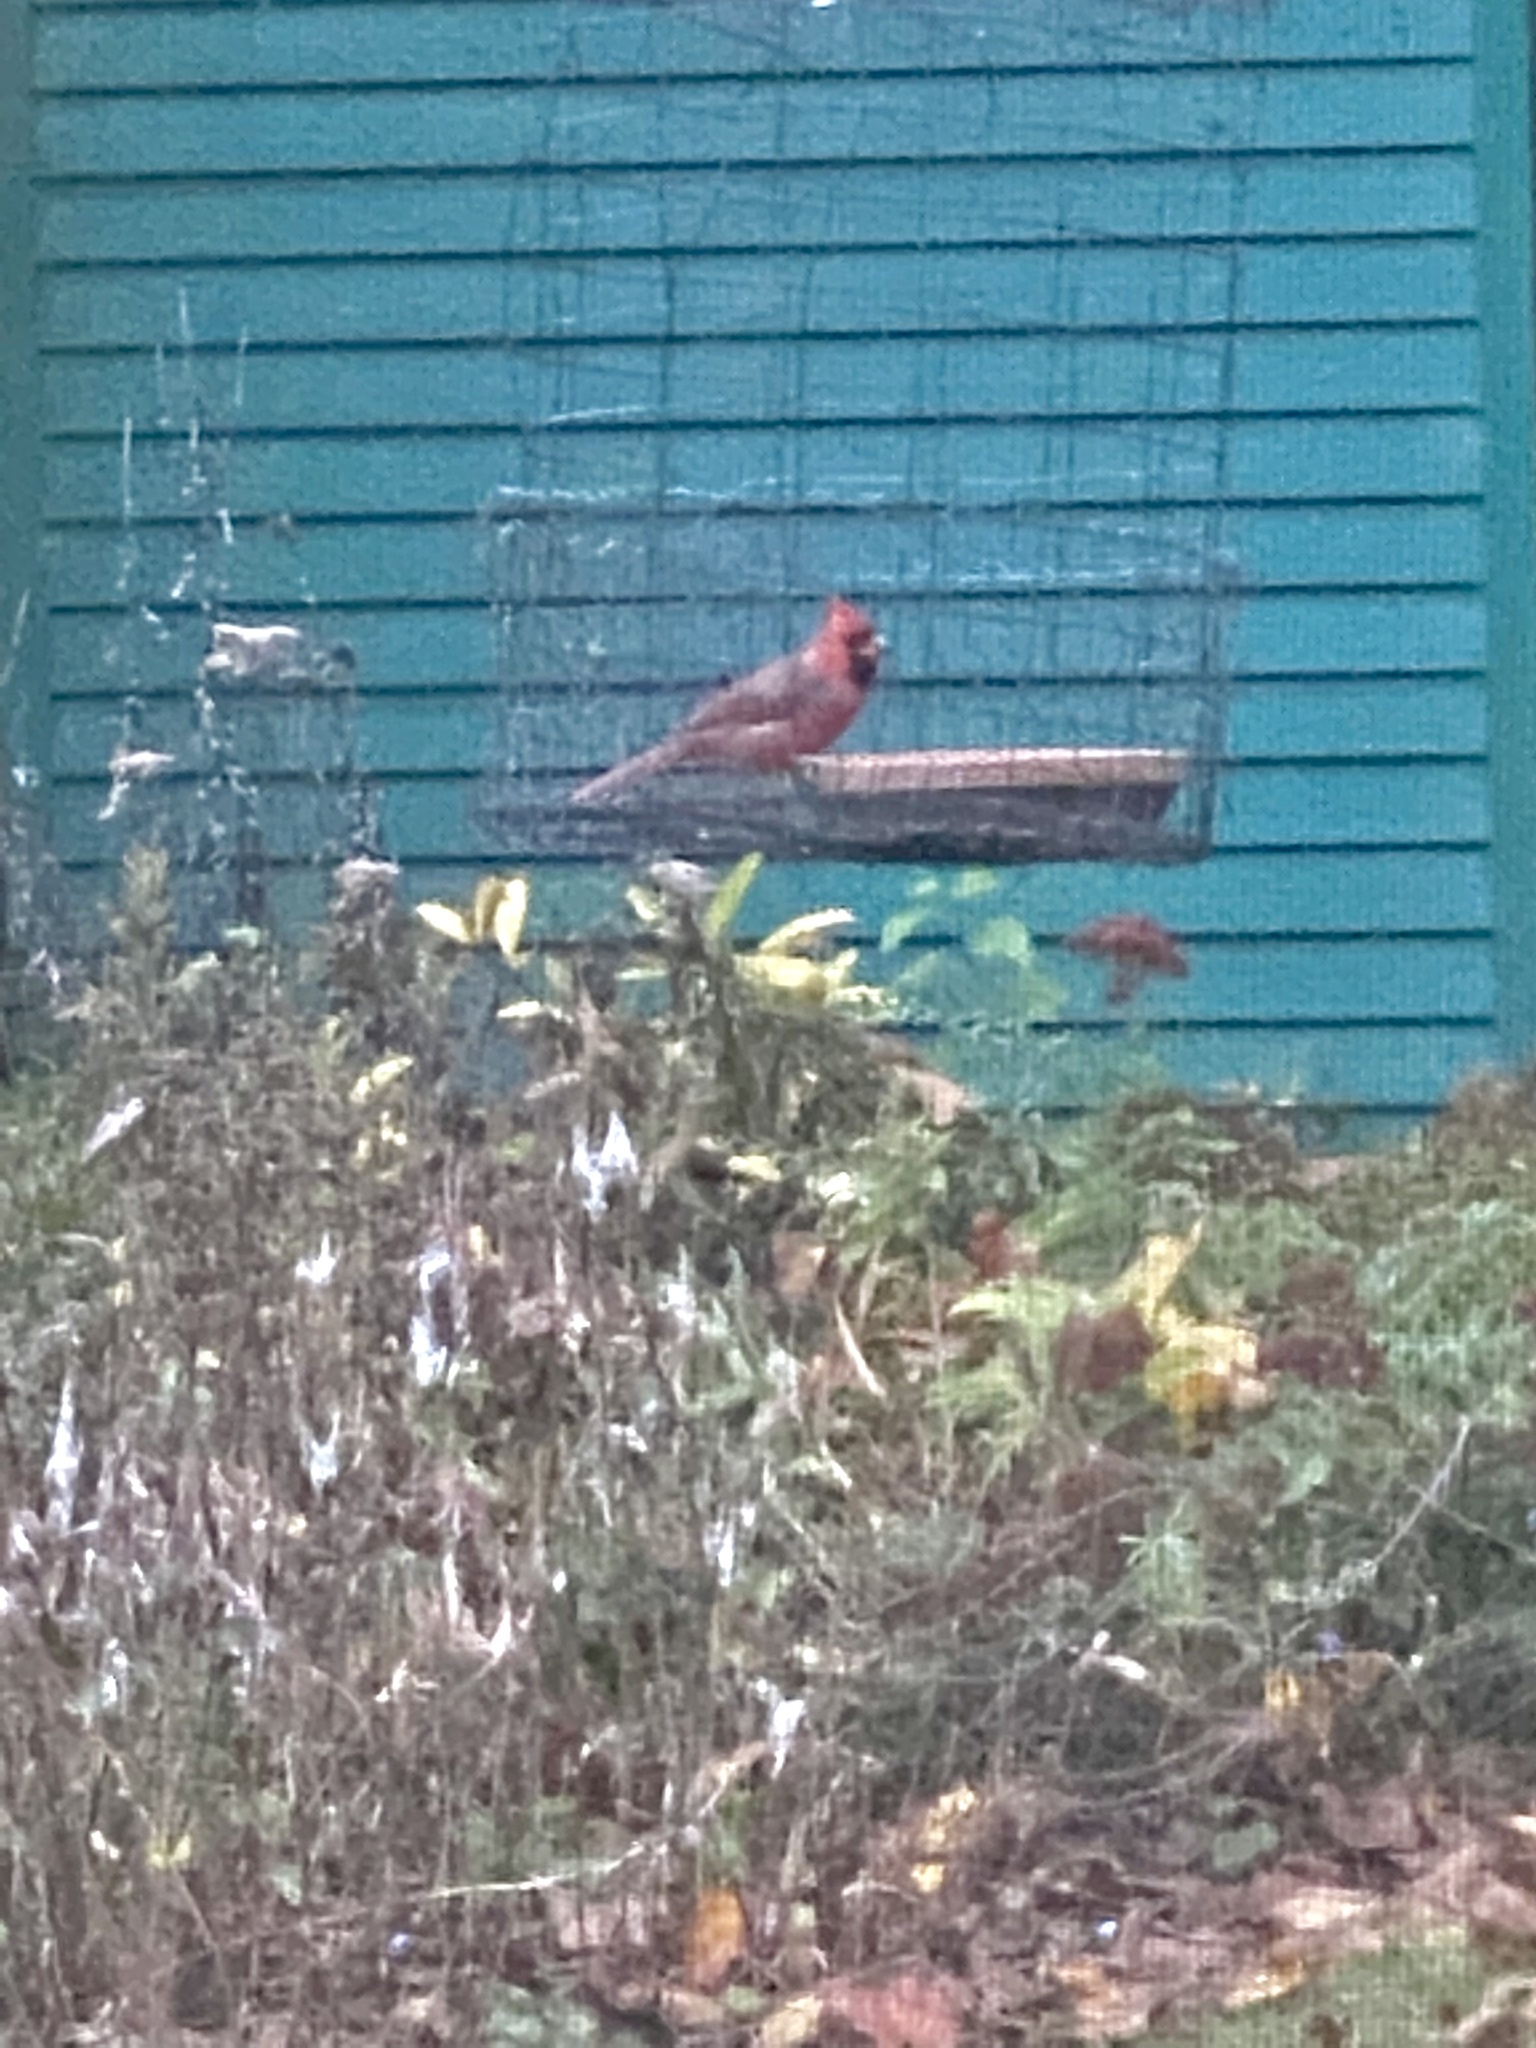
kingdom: Animalia
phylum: Chordata
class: Aves
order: Passeriformes
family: Cardinalidae
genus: Cardinalis
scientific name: Cardinalis cardinalis
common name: Northern cardinal
